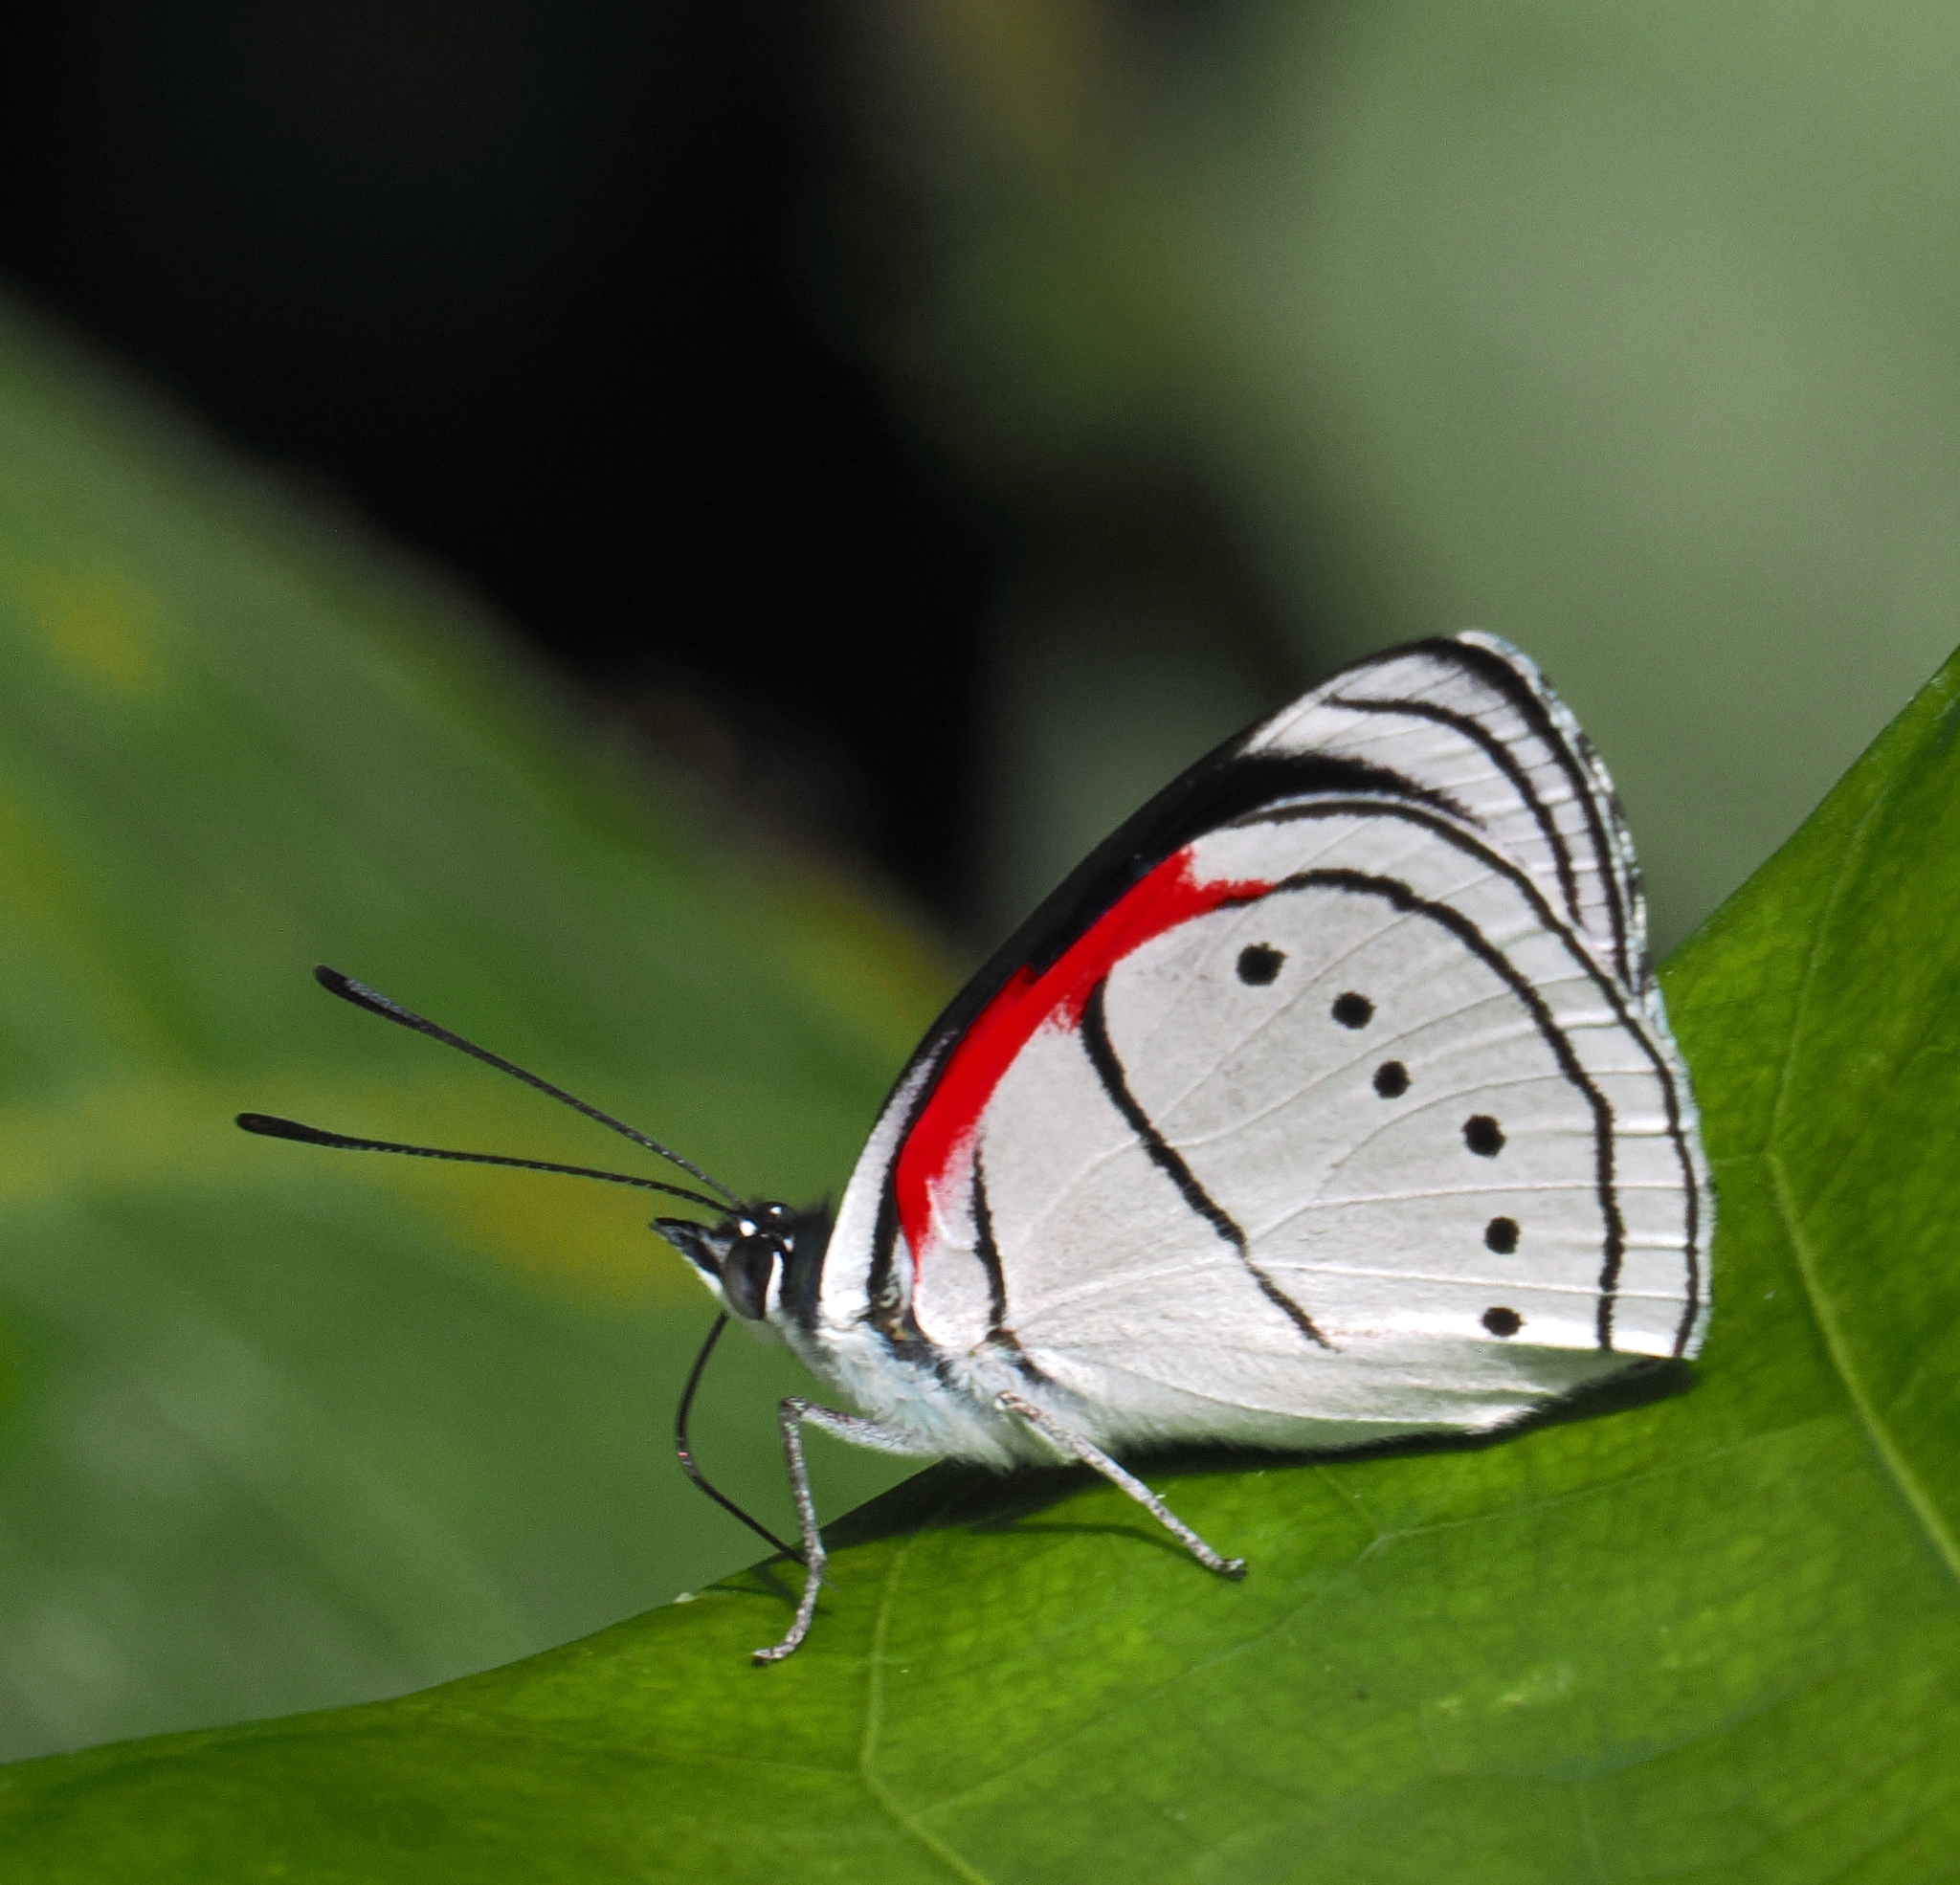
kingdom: Animalia
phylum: Arthropoda
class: Insecta
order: Lepidoptera
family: Nymphalidae
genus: Perisama
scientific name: Perisama Mesotaenia vaninka
